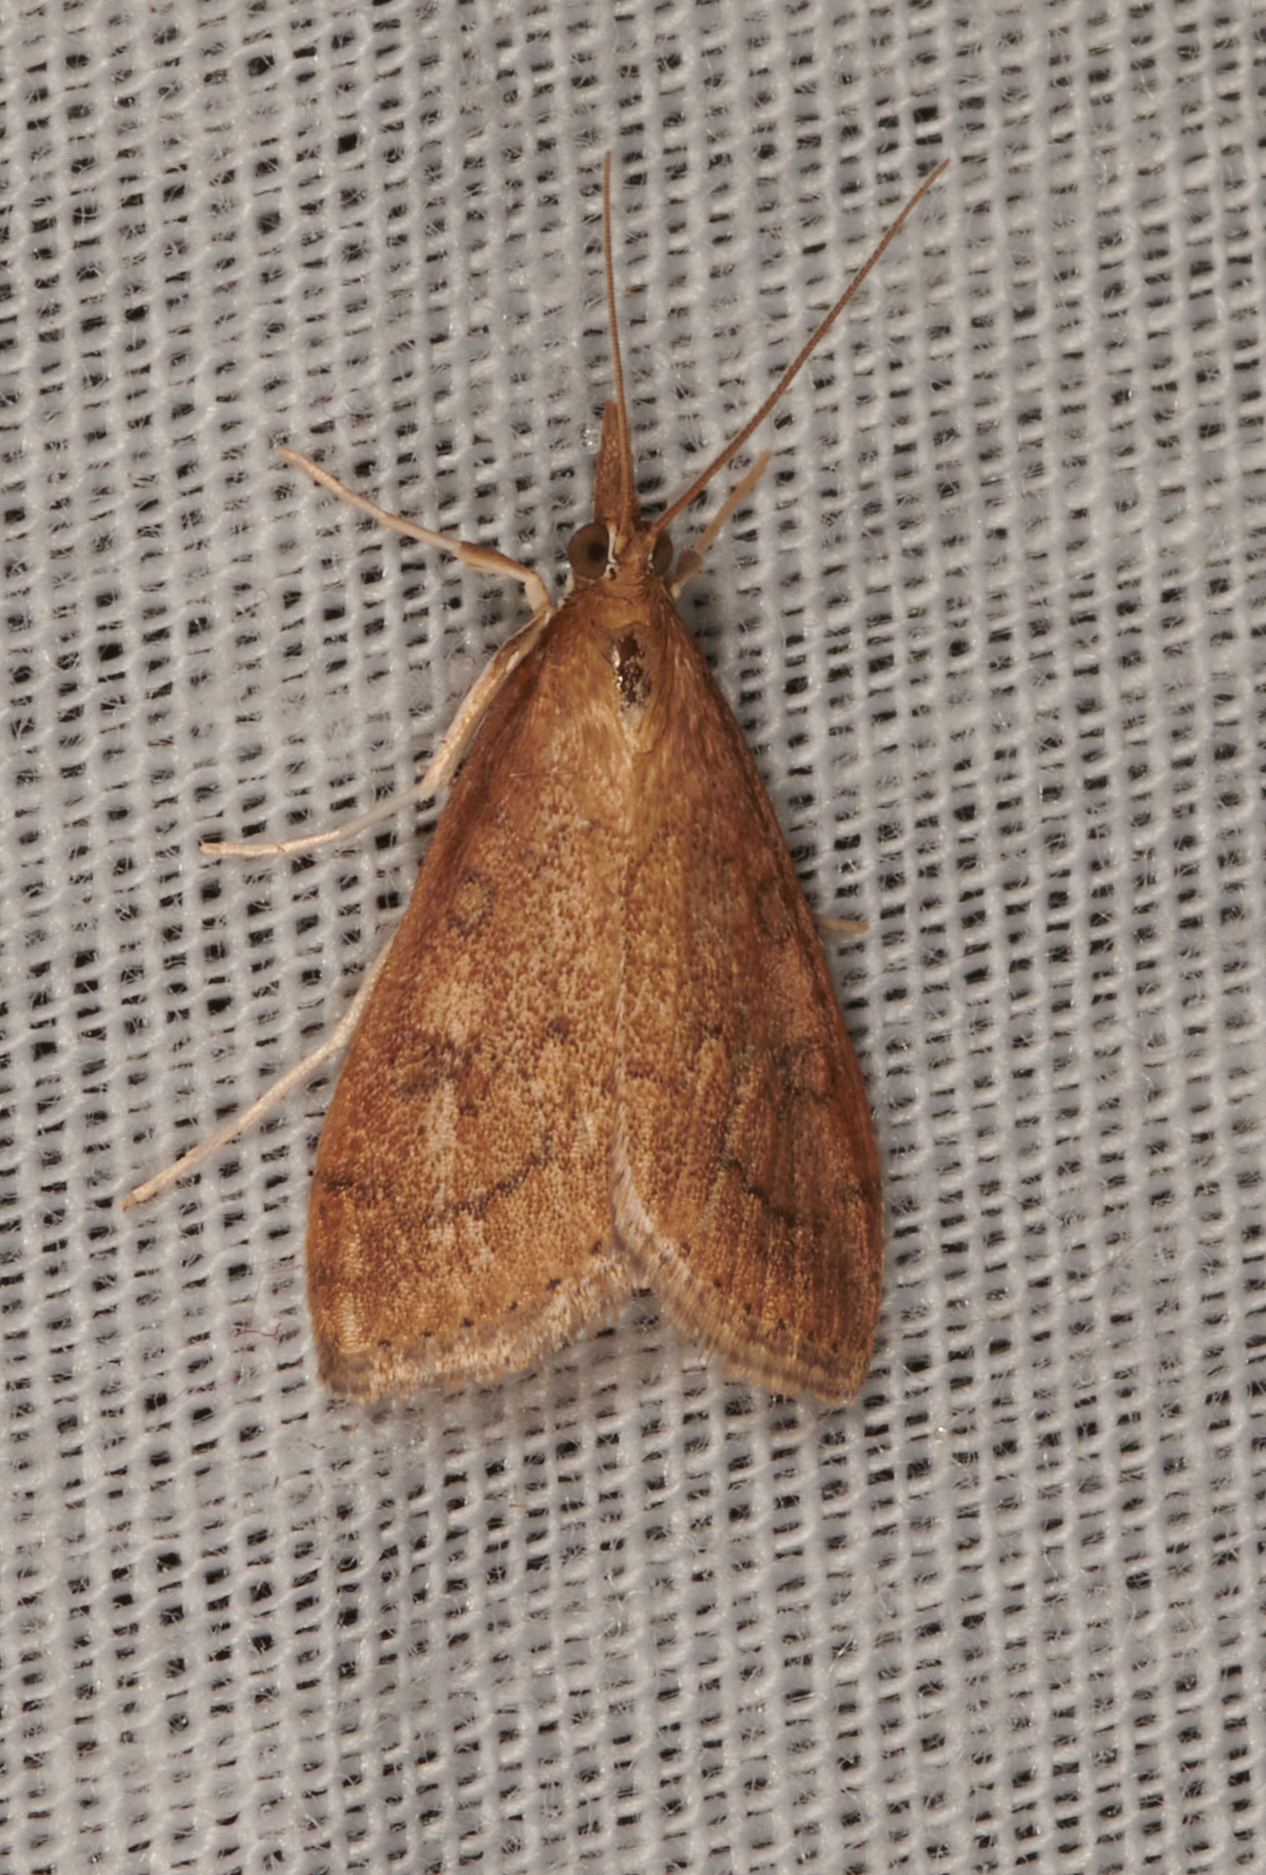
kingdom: Animalia
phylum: Arthropoda
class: Insecta
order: Lepidoptera
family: Crambidae
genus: Udea
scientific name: Udea rubigalis
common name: Celery leaftier moth
